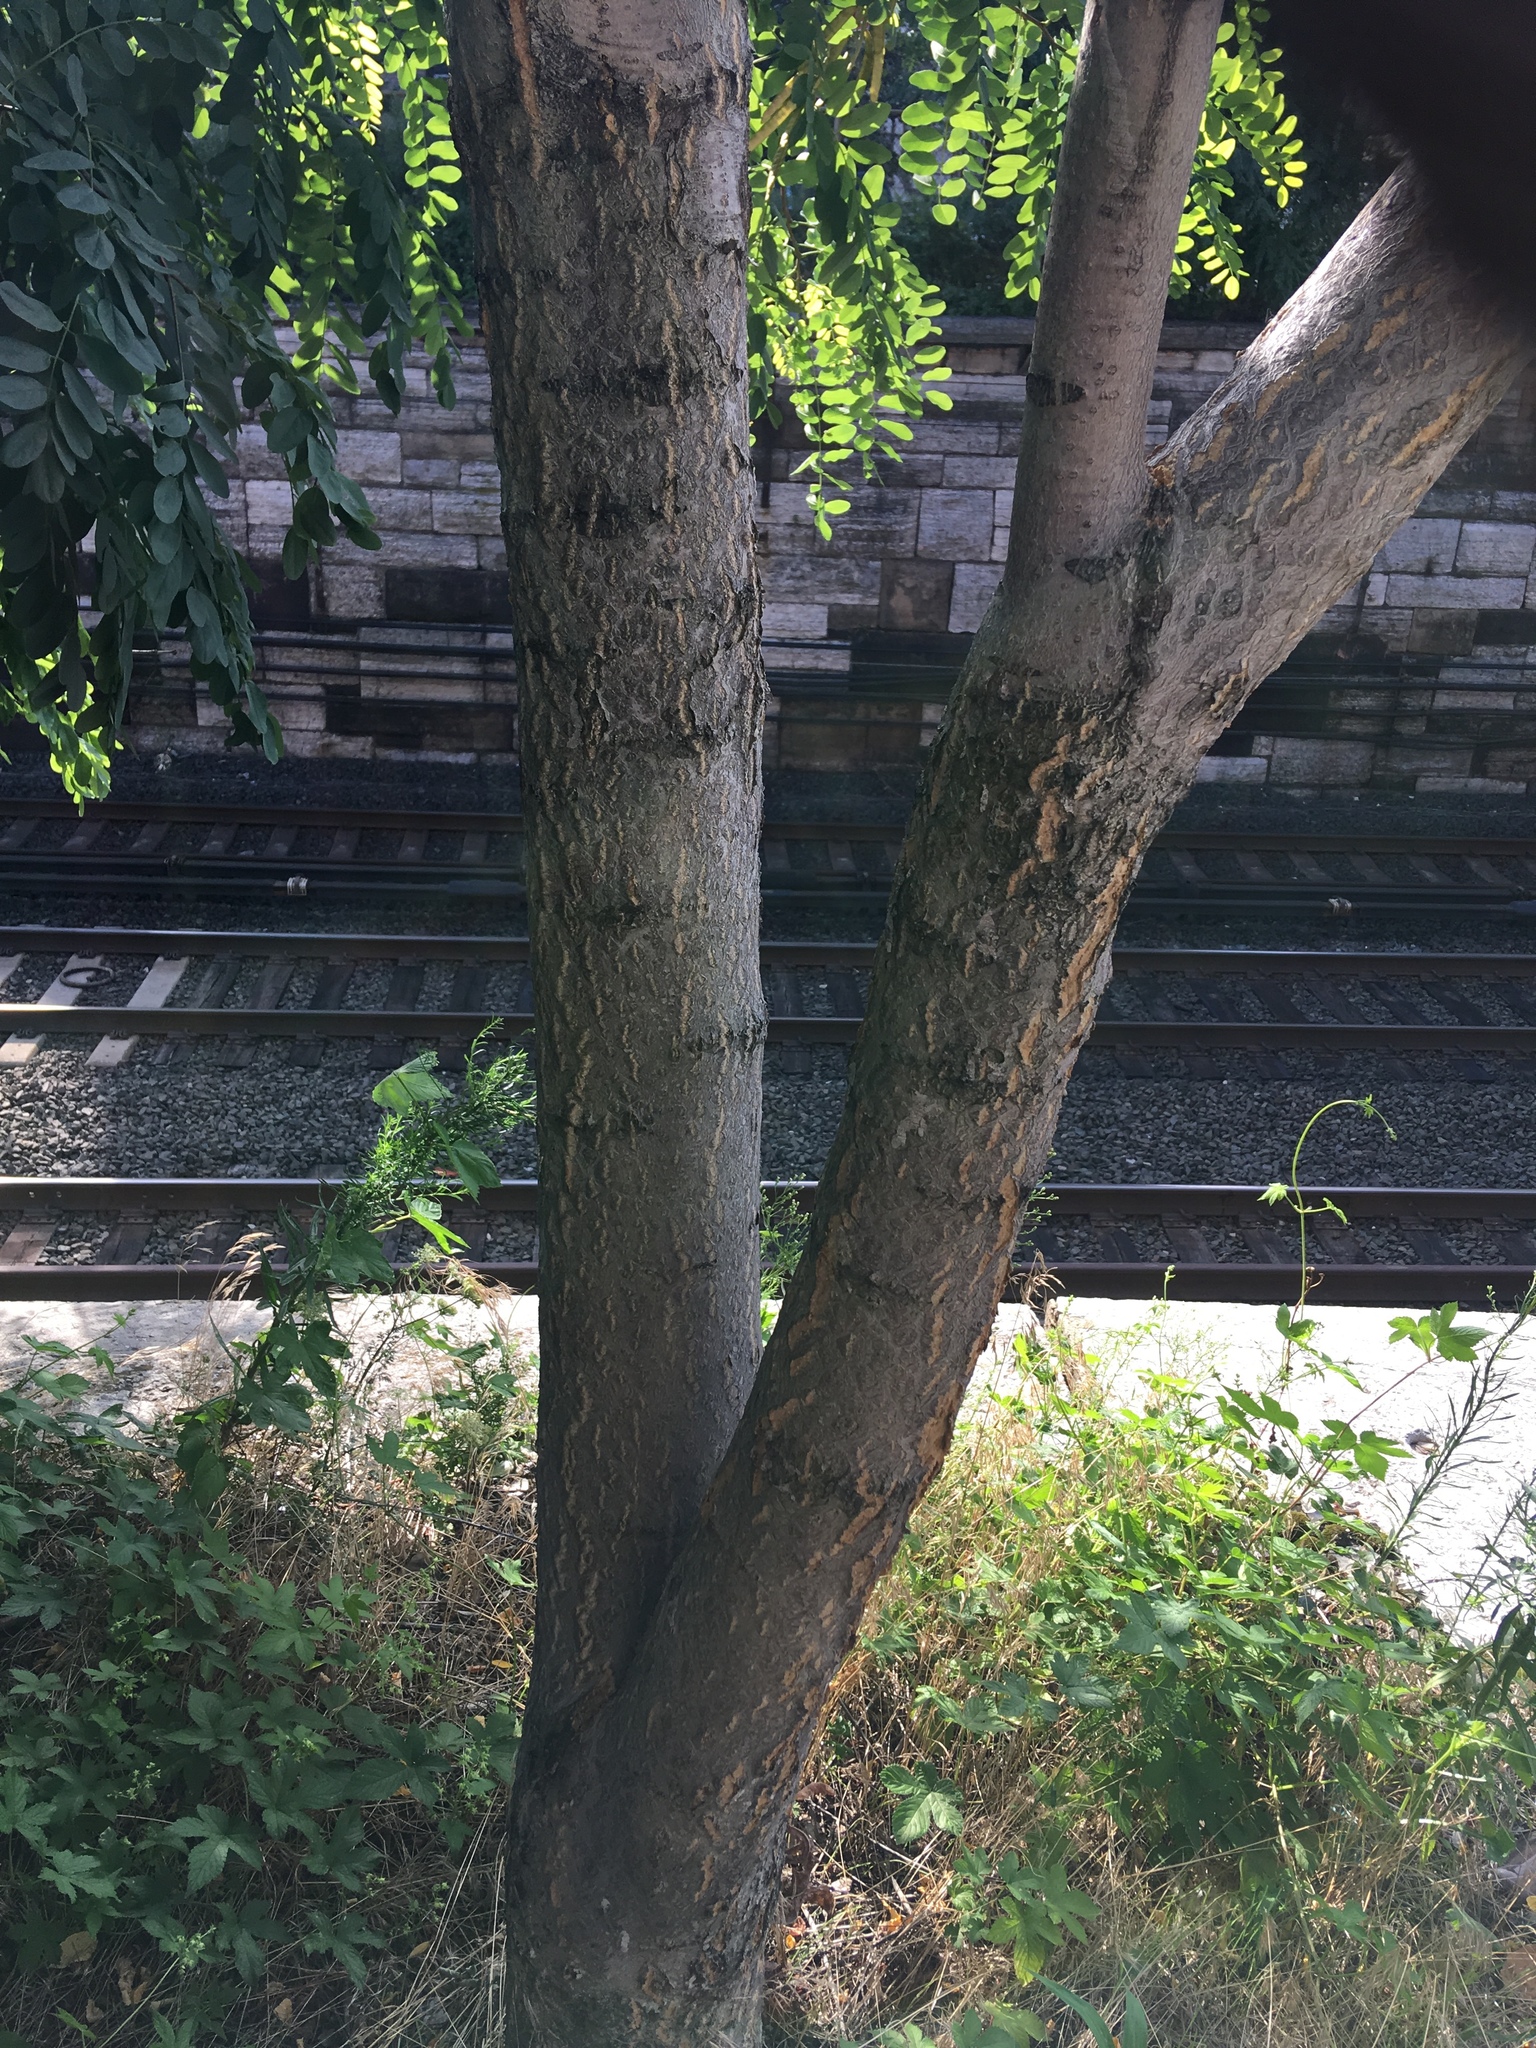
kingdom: Plantae
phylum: Tracheophyta
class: Magnoliopsida
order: Sapindales
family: Simaroubaceae
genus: Ailanthus
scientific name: Ailanthus altissima
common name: Tree-of-heaven
